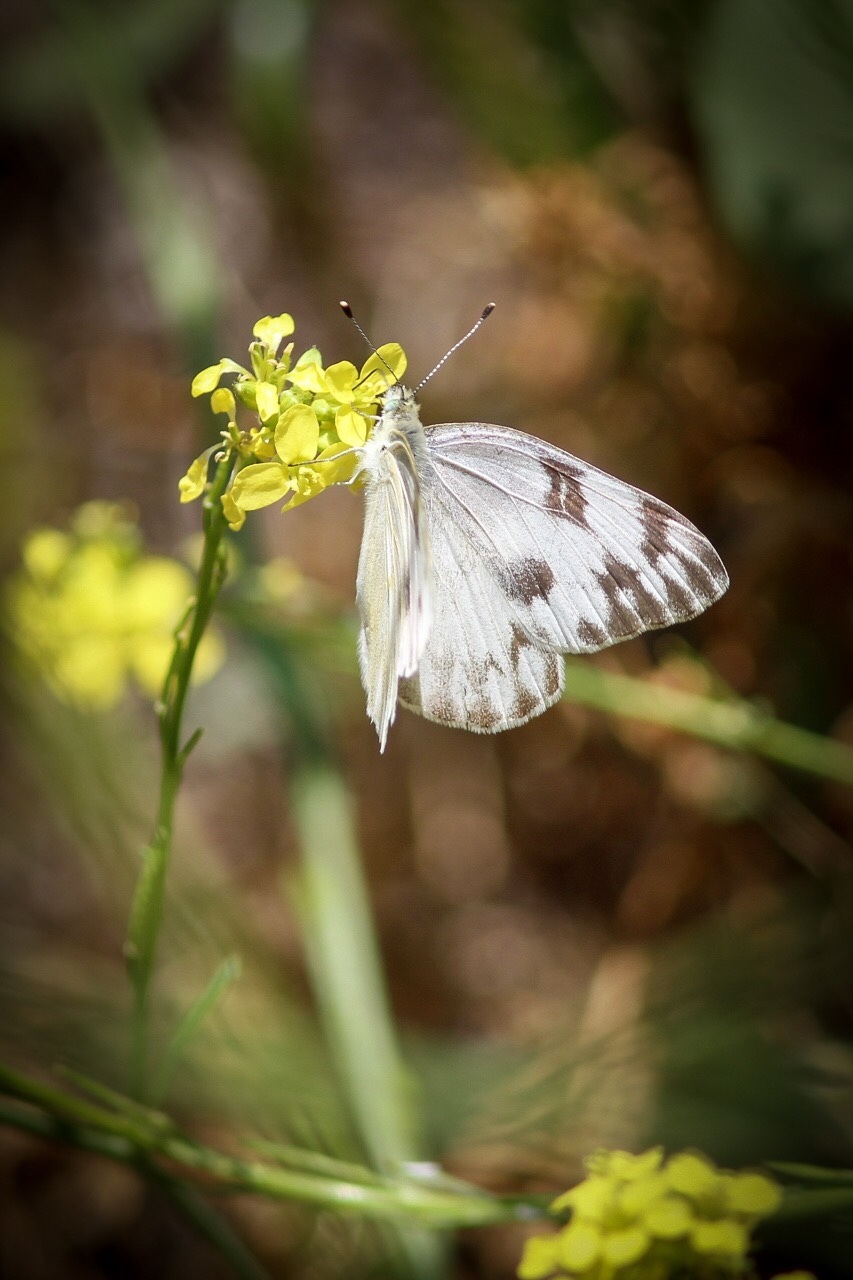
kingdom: Animalia
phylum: Arthropoda
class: Insecta
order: Lepidoptera
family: Pieridae
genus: Pontia
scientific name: Pontia protodice
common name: Checkered white
